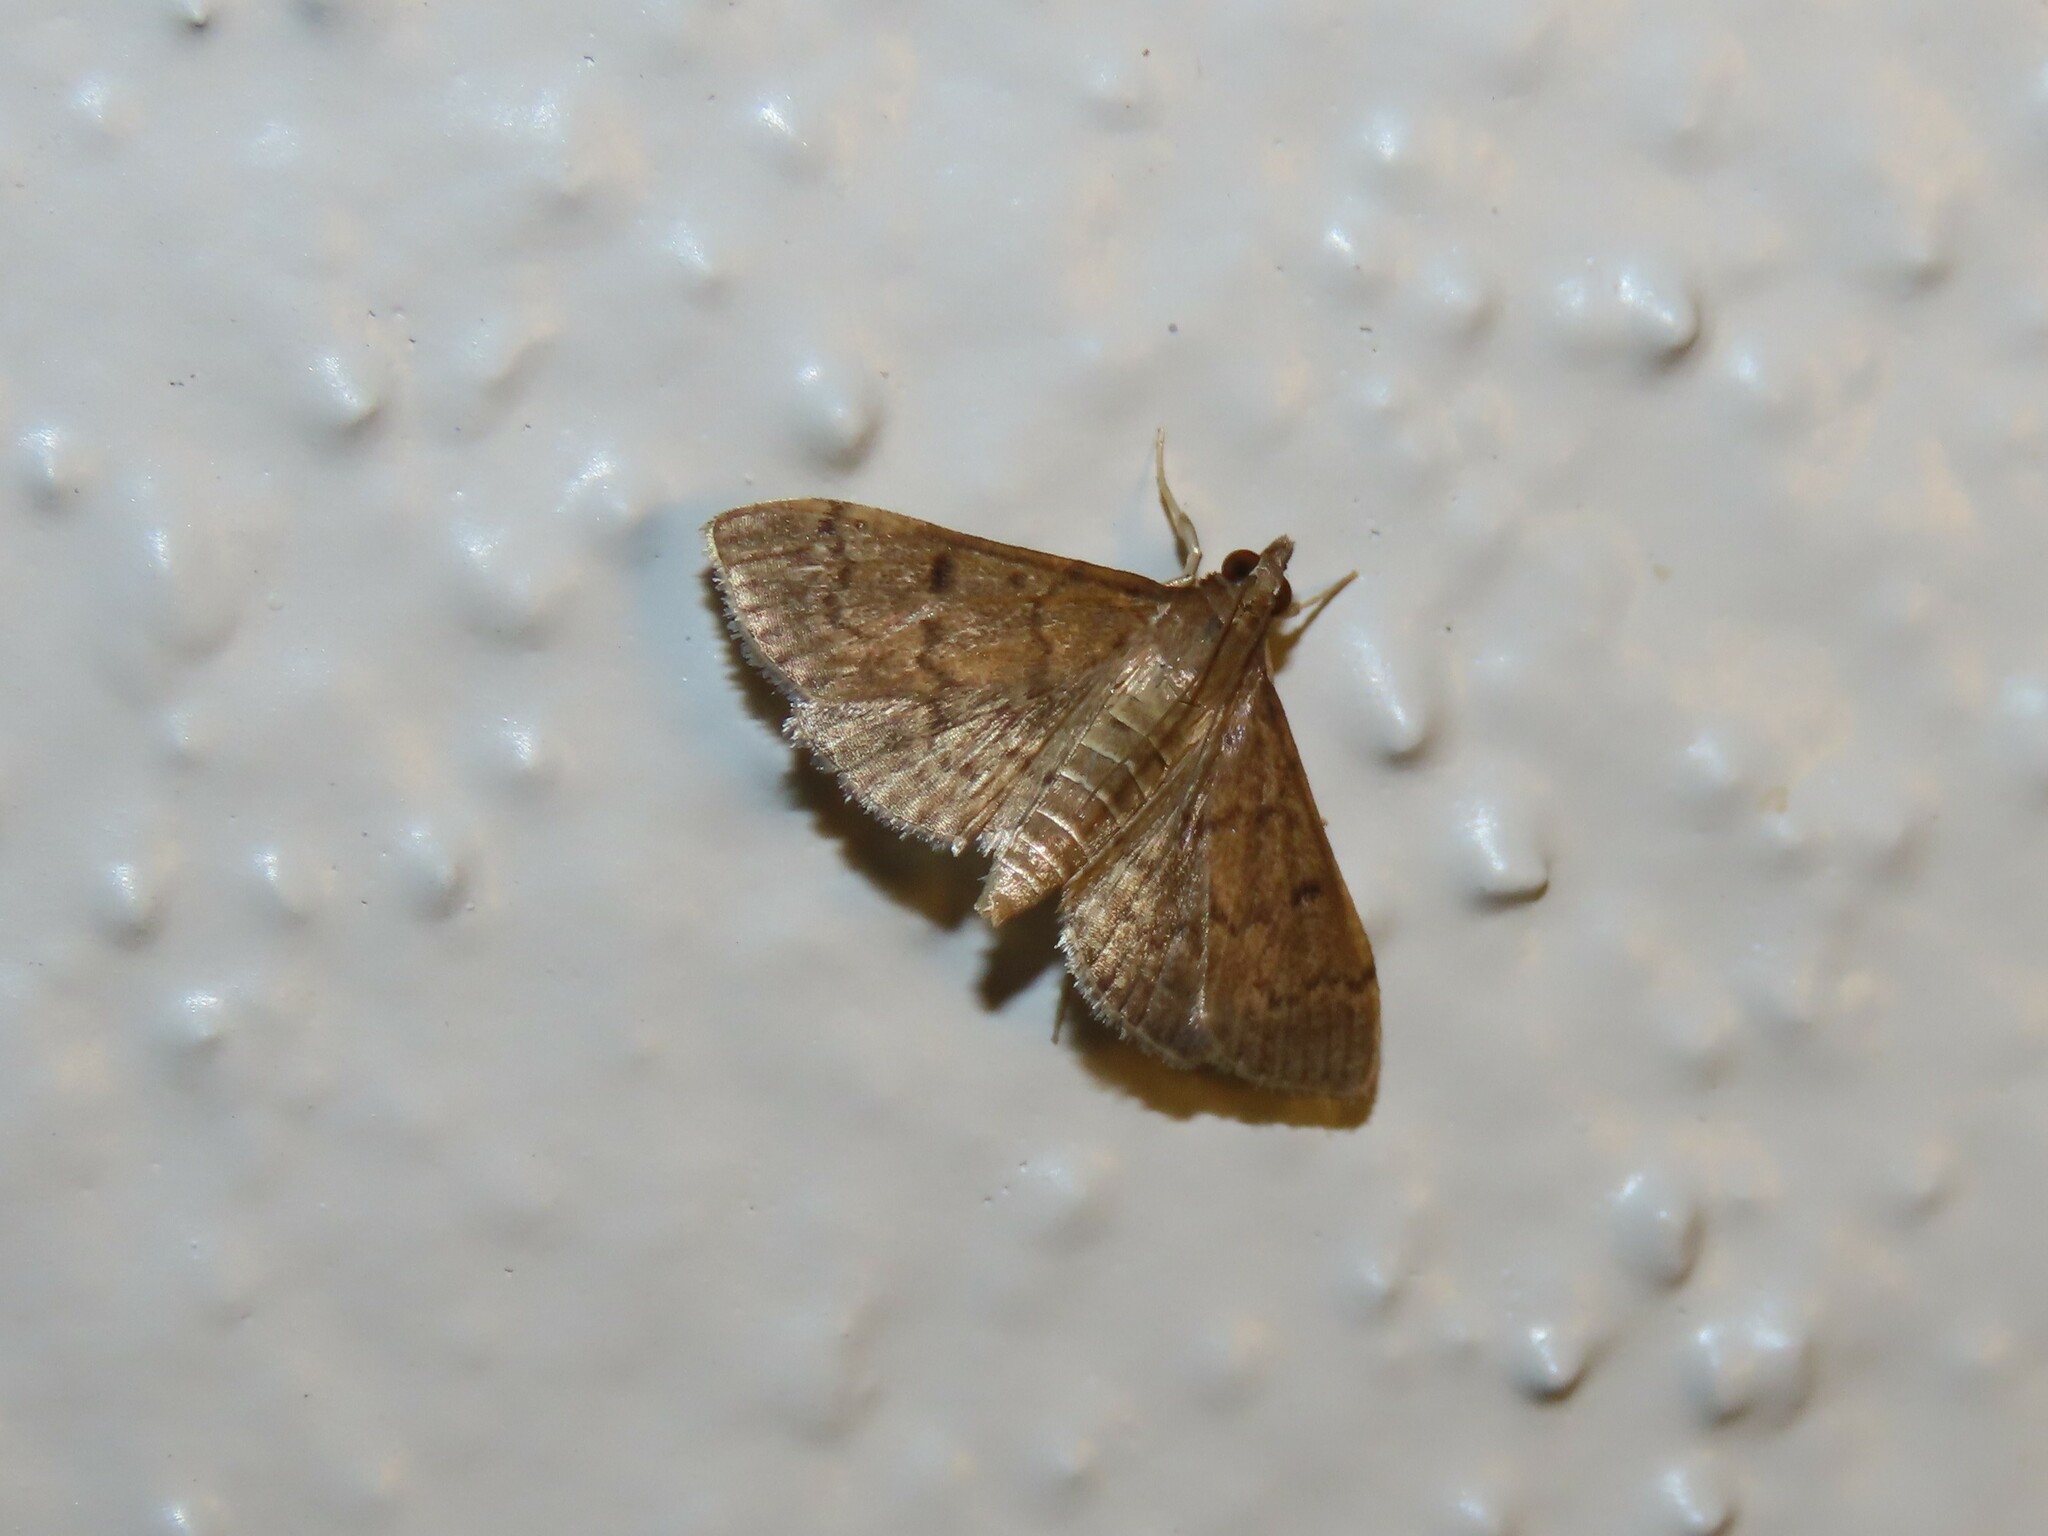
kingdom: Animalia
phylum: Arthropoda
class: Insecta
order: Lepidoptera
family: Crambidae
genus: Herpetogramma
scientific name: Herpetogramma phaeopteralis
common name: Dusky herpetogramma moth
